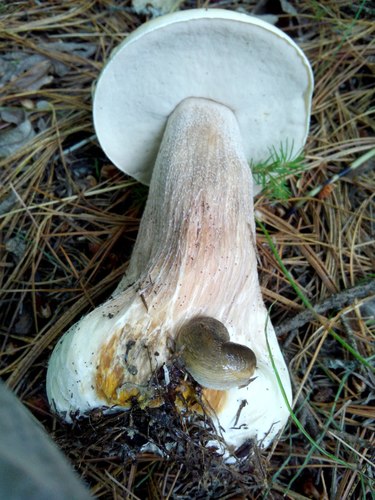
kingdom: Fungi
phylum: Basidiomycota
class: Agaricomycetes
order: Boletales
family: Boletaceae
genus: Boletus
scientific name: Boletus edulis
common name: Cep
